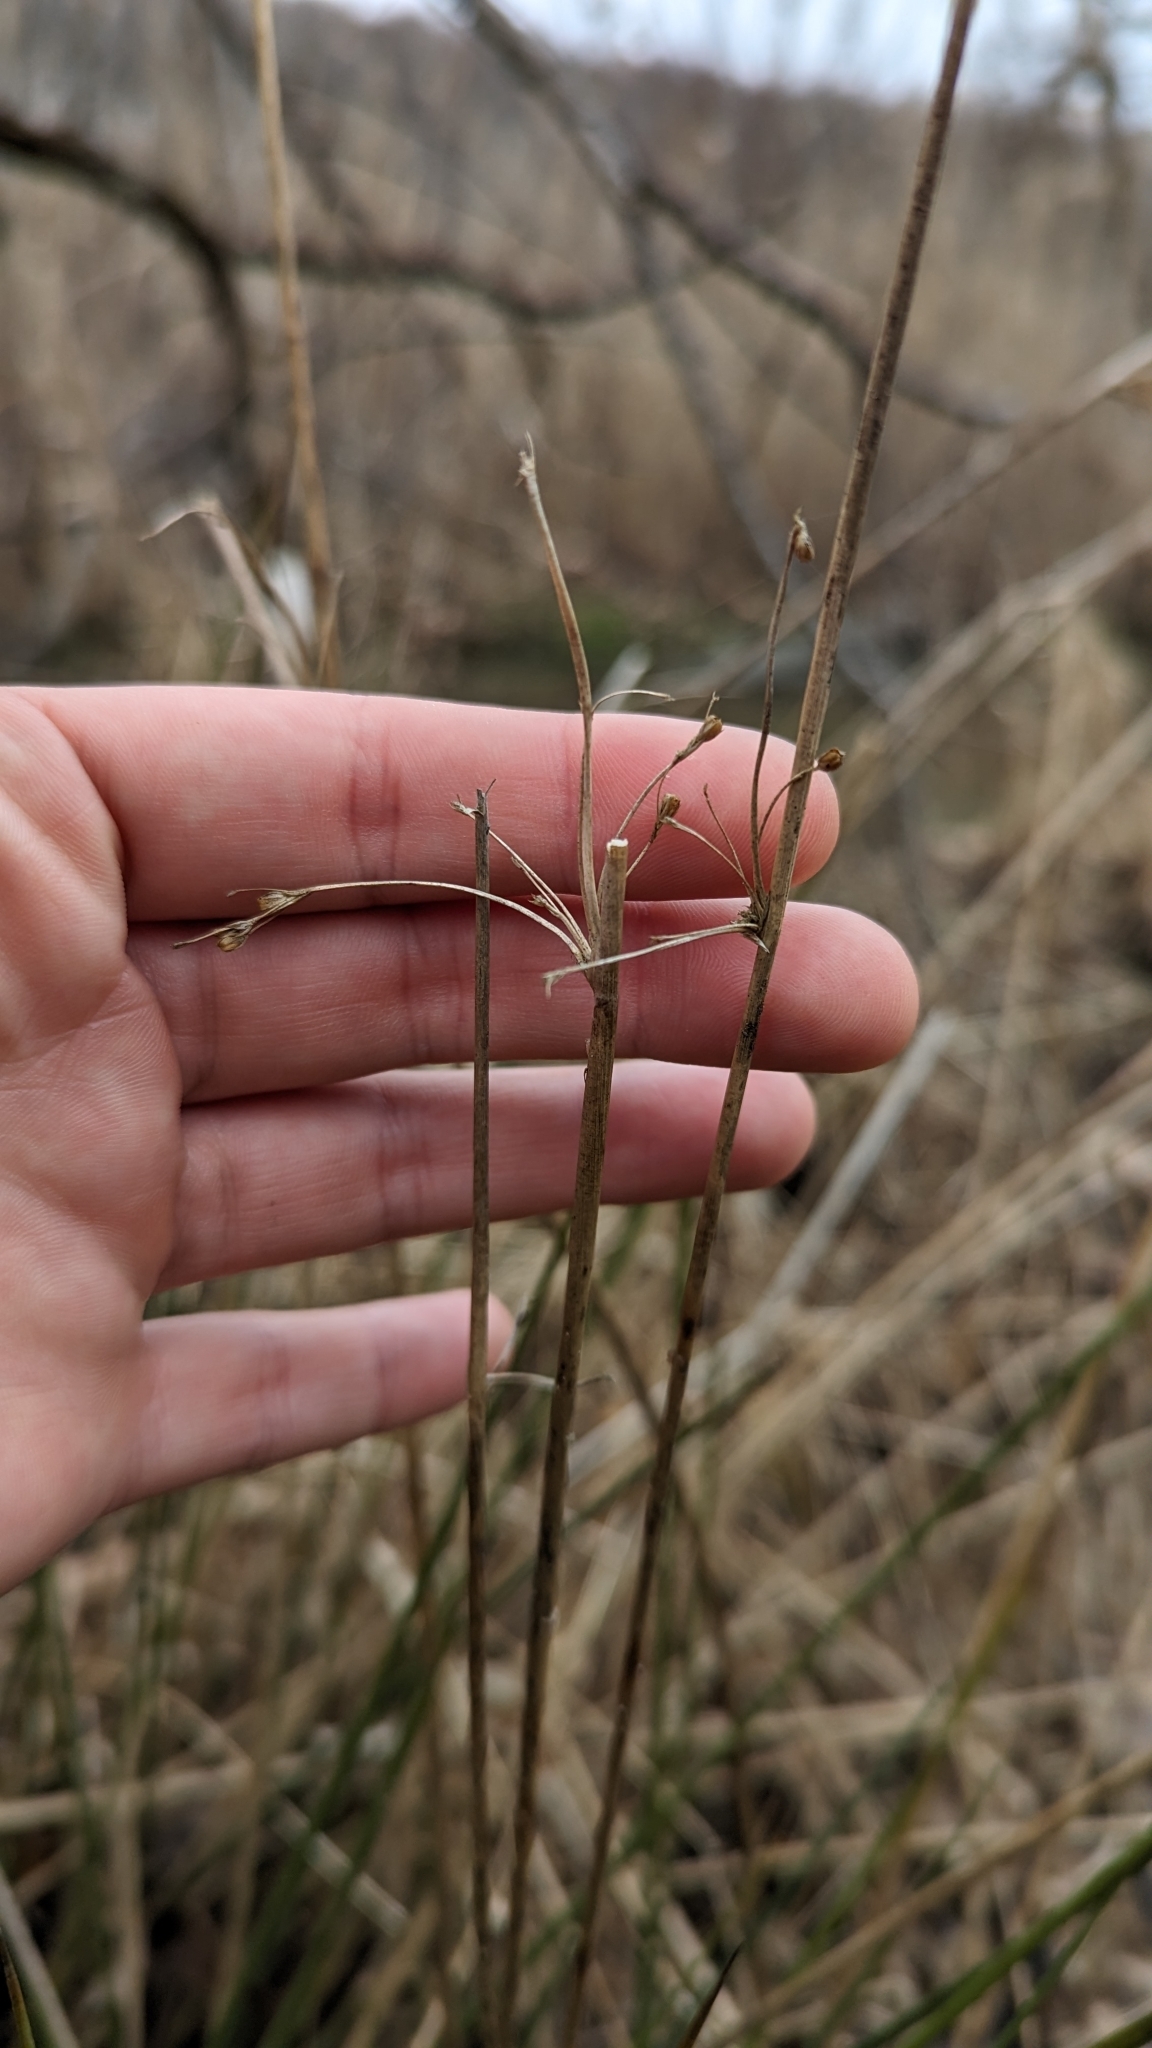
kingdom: Plantae
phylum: Tracheophyta
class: Liliopsida
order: Poales
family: Juncaceae
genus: Juncus
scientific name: Juncus effusus
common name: Soft rush
